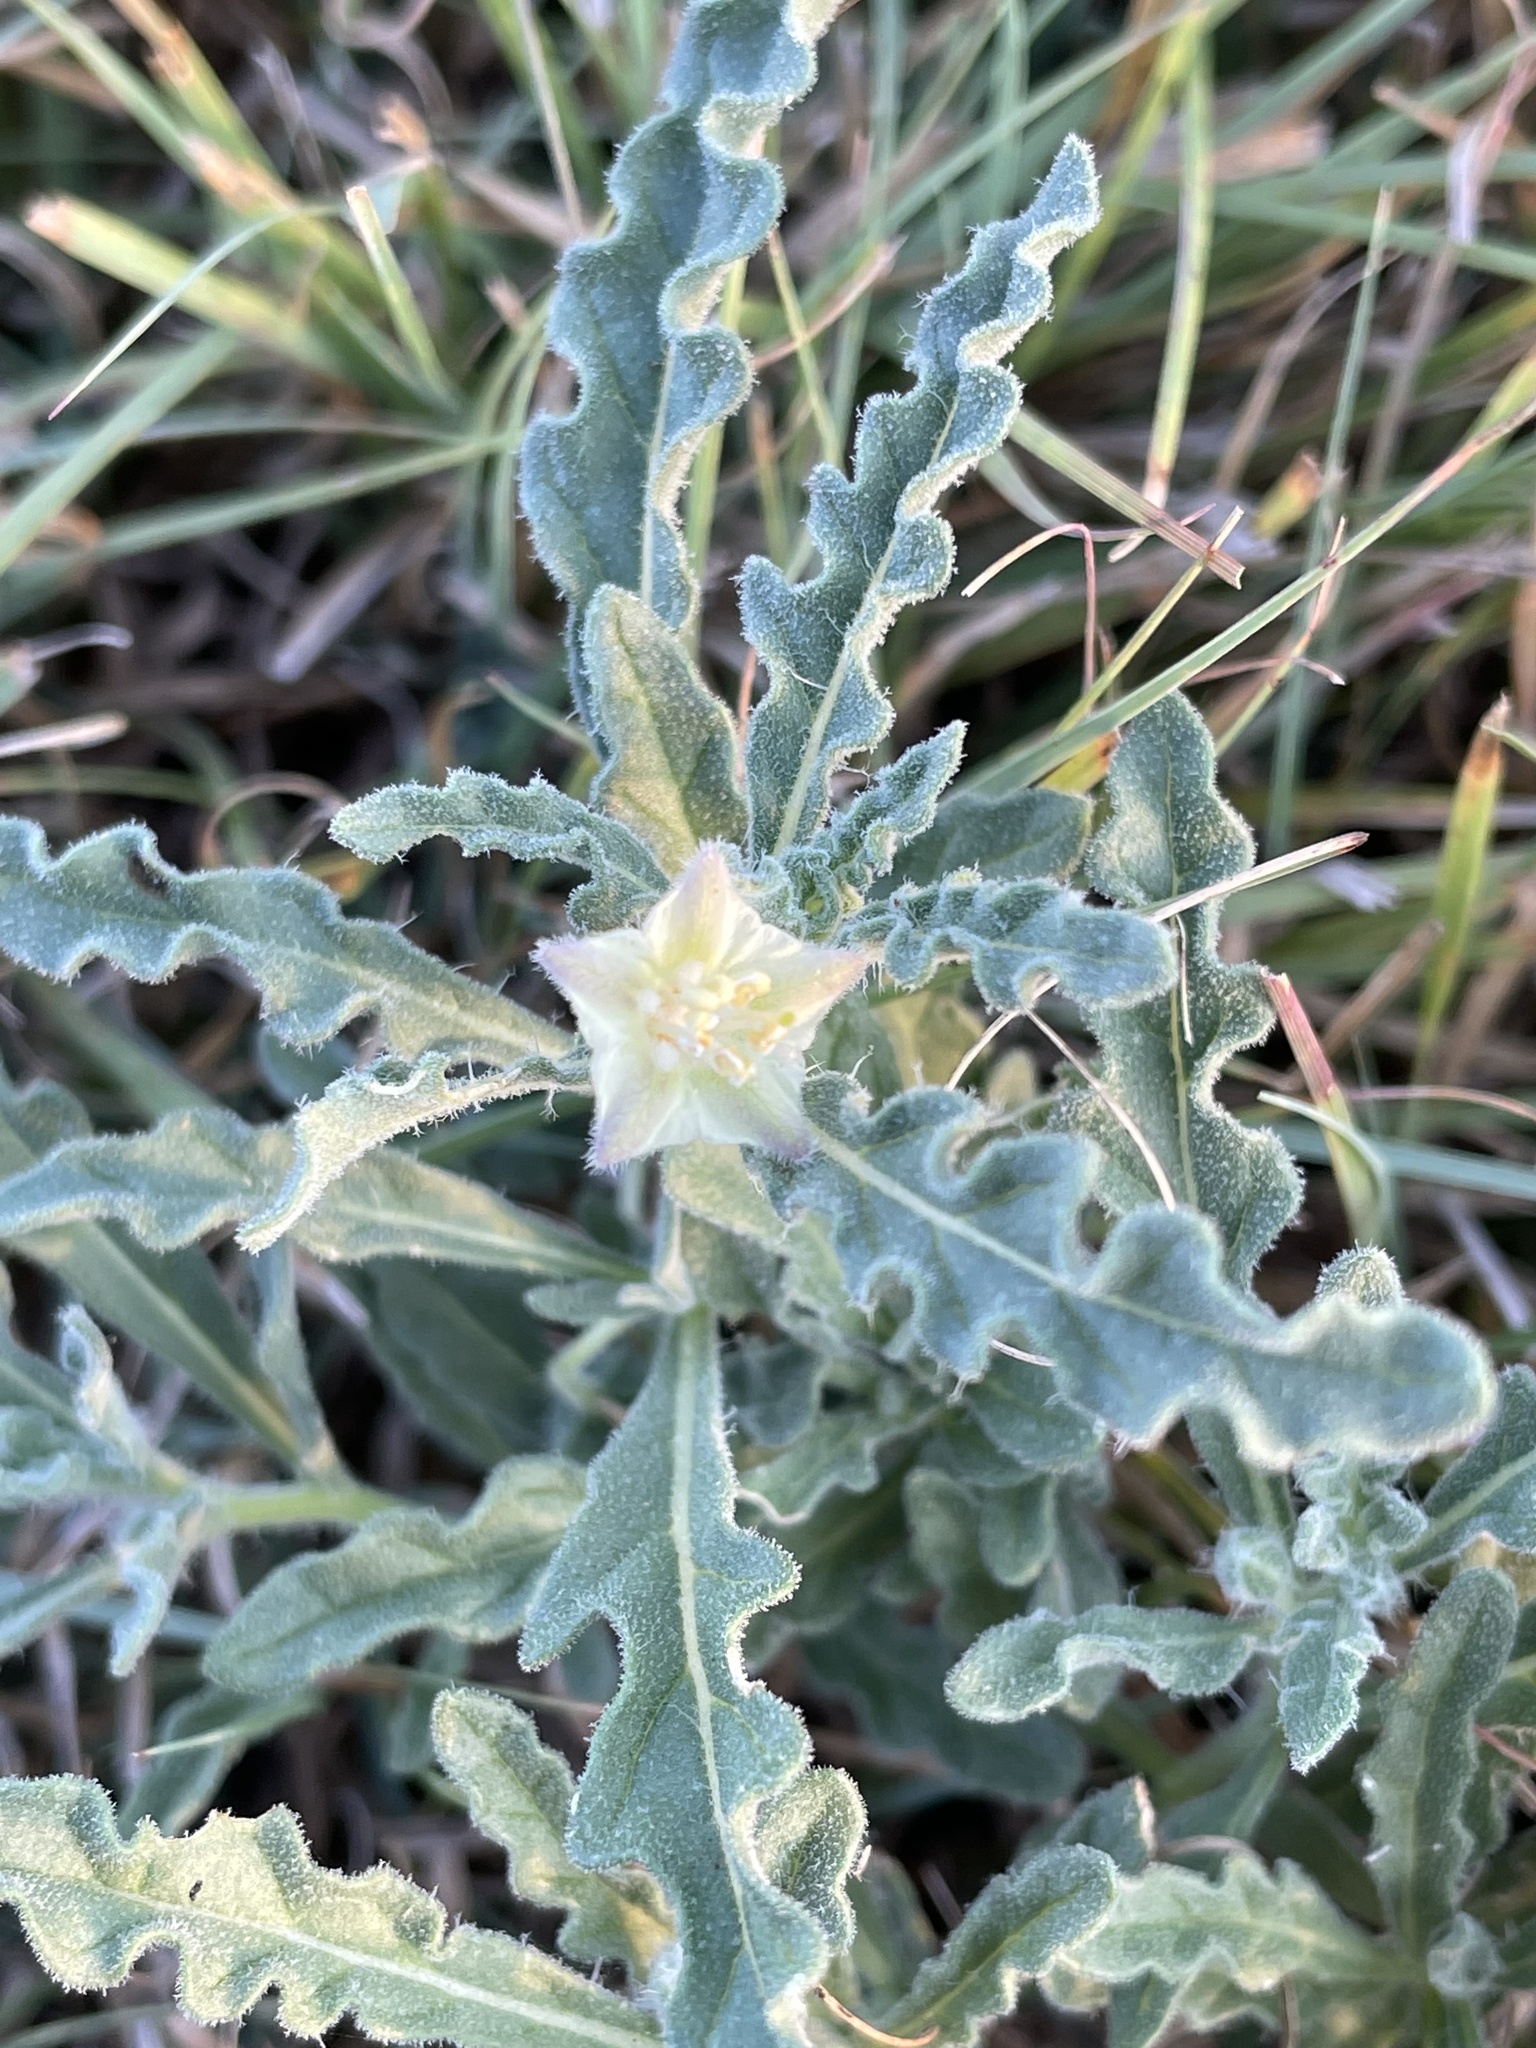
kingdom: Plantae
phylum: Tracheophyta
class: Magnoliopsida
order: Solanales
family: Solanaceae
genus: Chamaesaracha
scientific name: Chamaesaracha sordida
